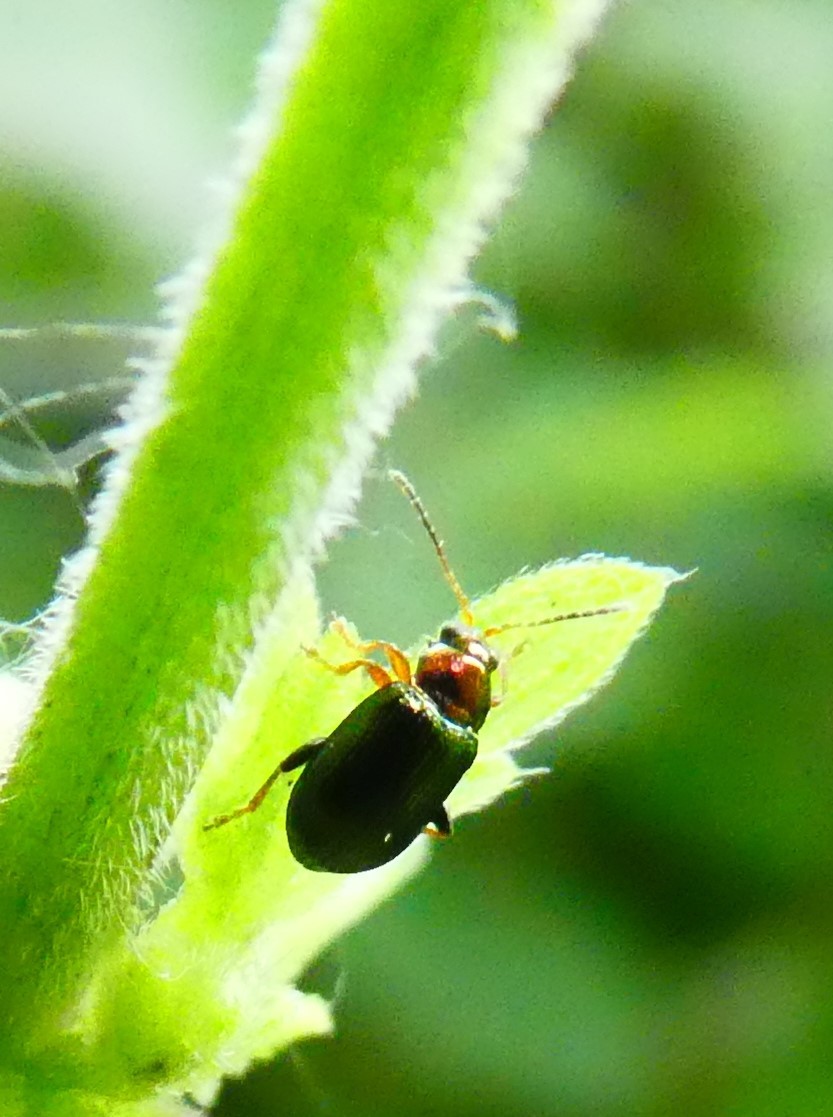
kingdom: Animalia
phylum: Arthropoda
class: Insecta
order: Coleoptera
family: Chrysomelidae
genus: Crepidodera
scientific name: Crepidodera aurata
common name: Willow flea beetle
